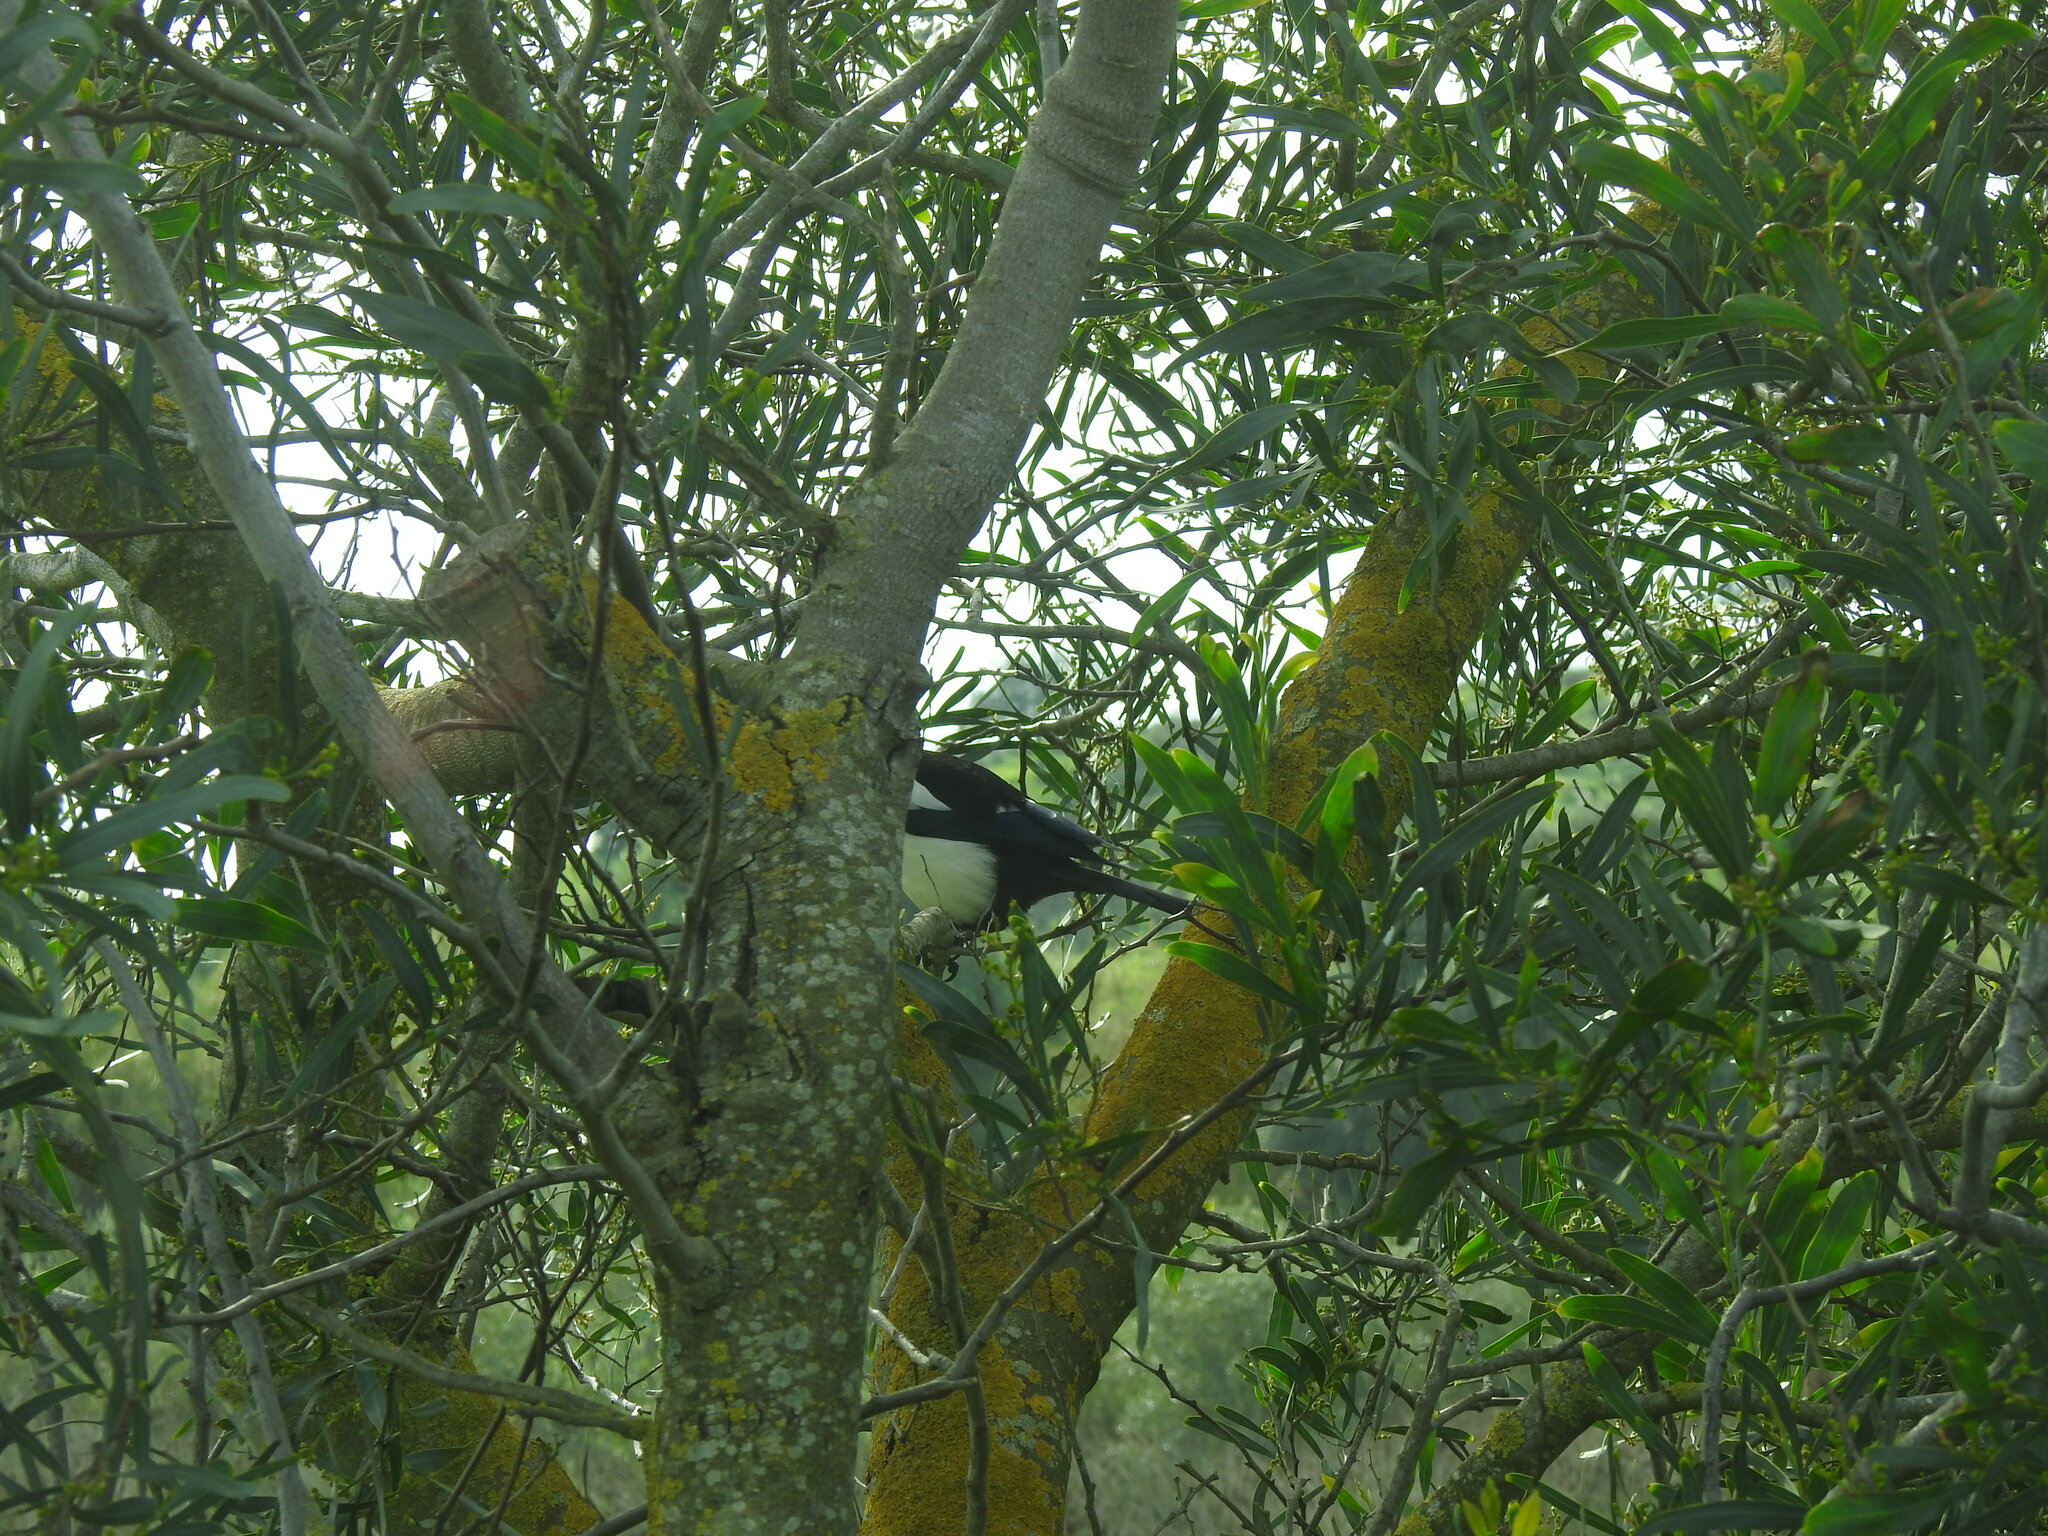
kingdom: Animalia
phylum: Chordata
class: Aves
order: Passeriformes
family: Corvidae
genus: Pica
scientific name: Pica pica
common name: Eurasian magpie
